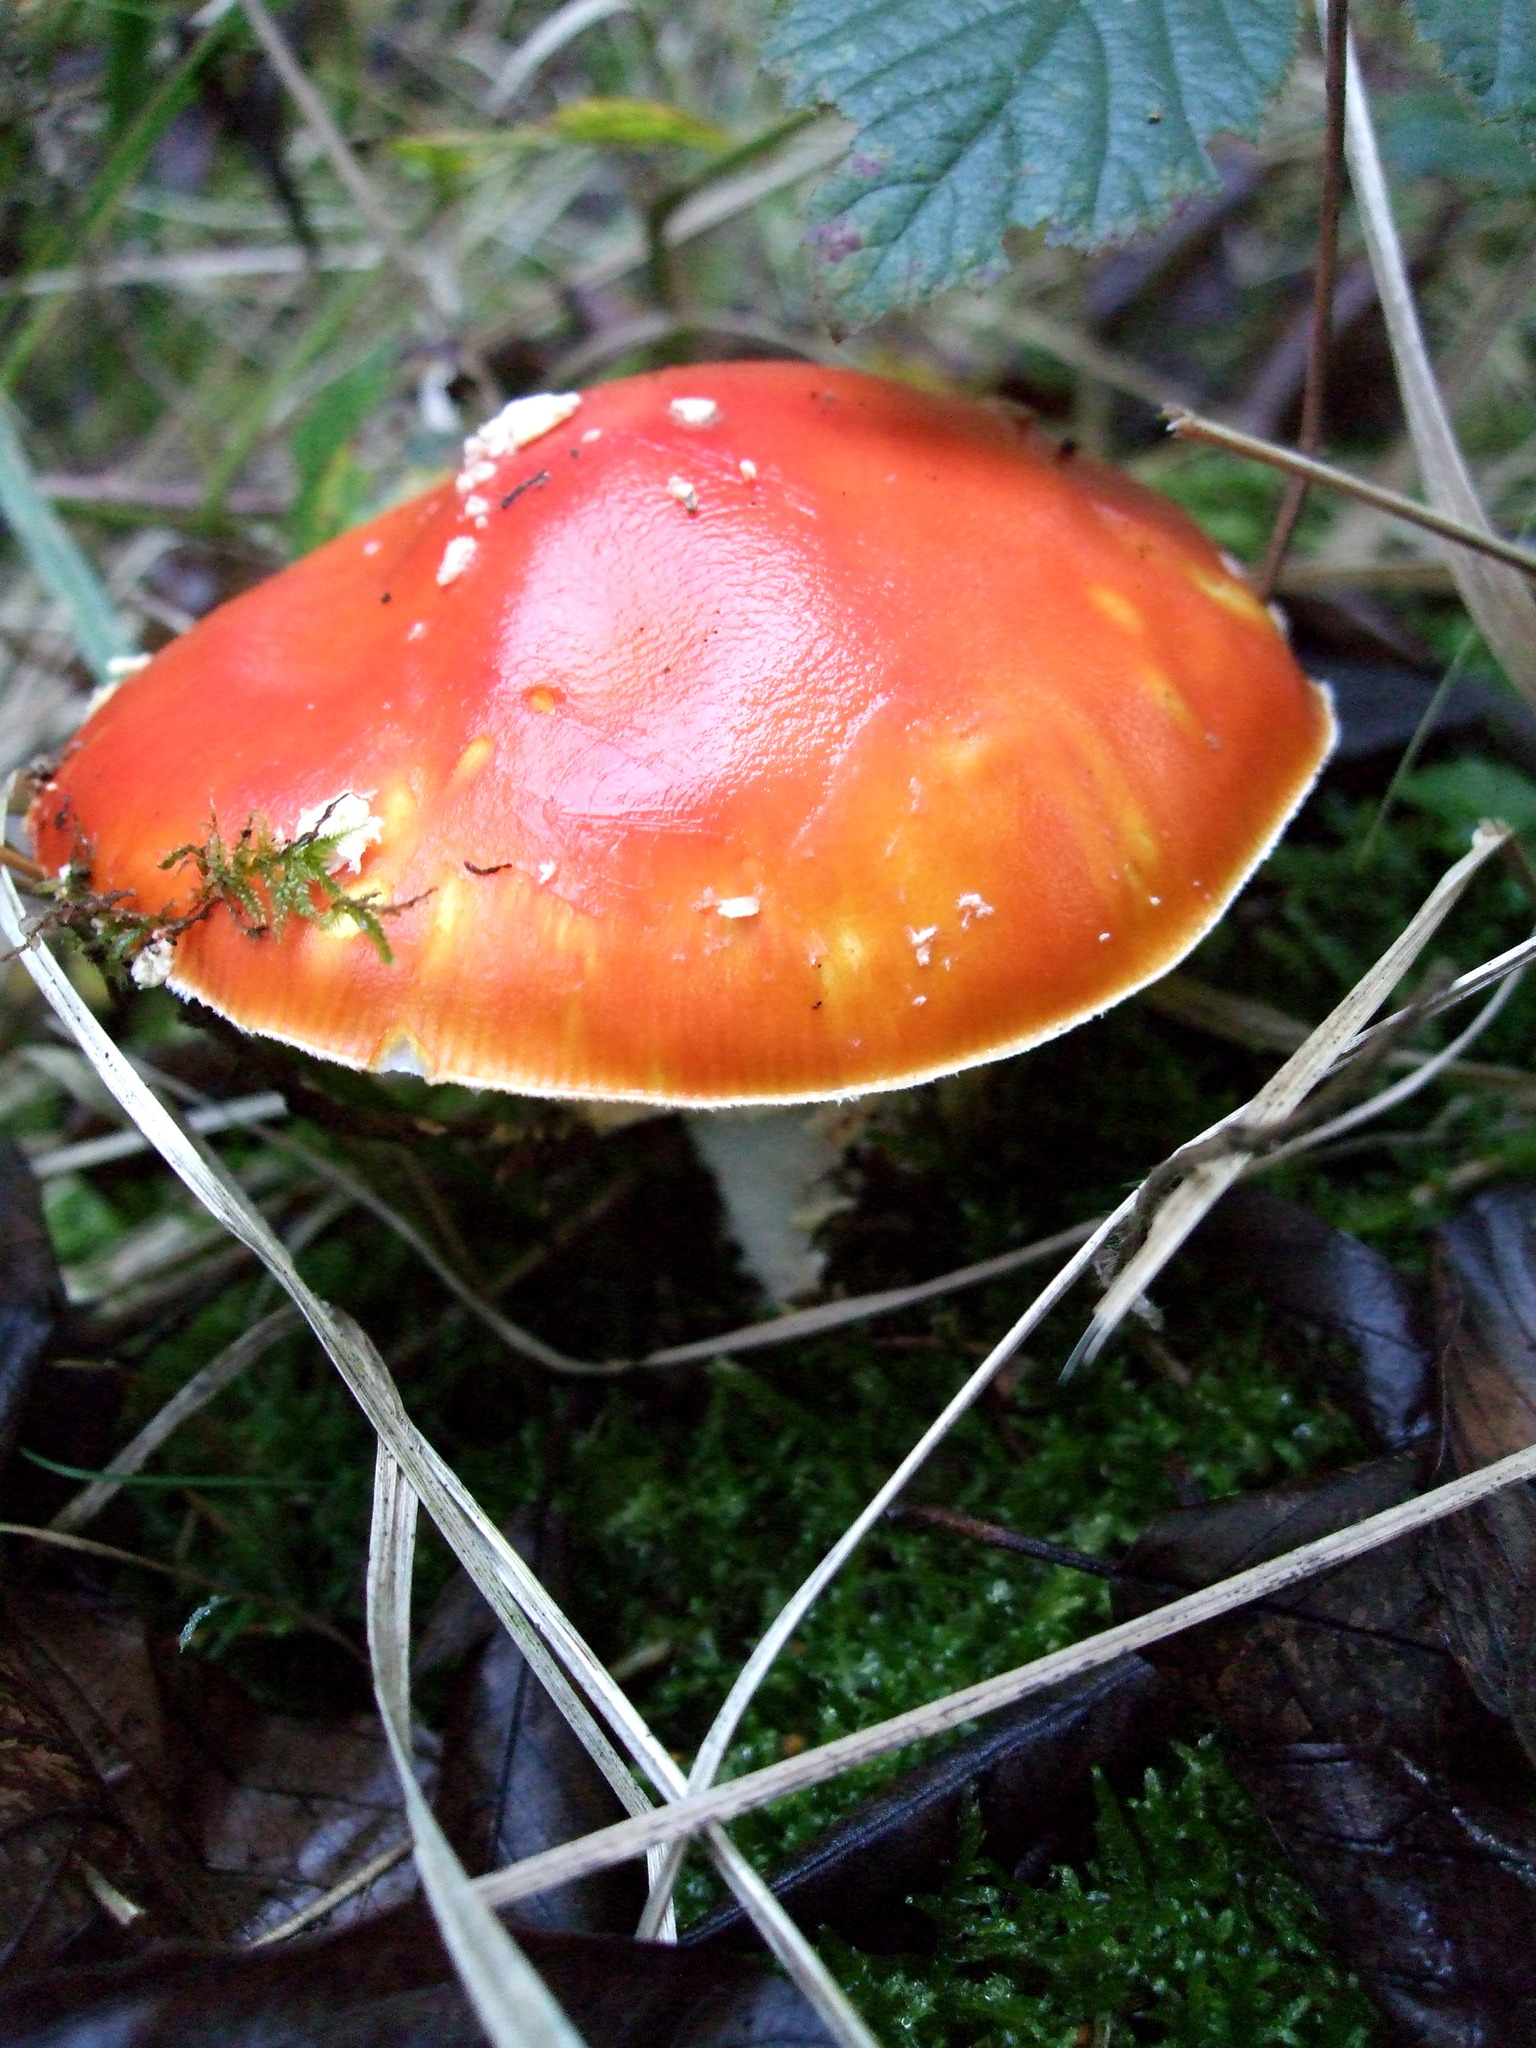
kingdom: Fungi
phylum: Basidiomycota
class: Agaricomycetes
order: Agaricales
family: Amanitaceae
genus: Amanita
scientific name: Amanita muscaria
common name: Fly agaric
